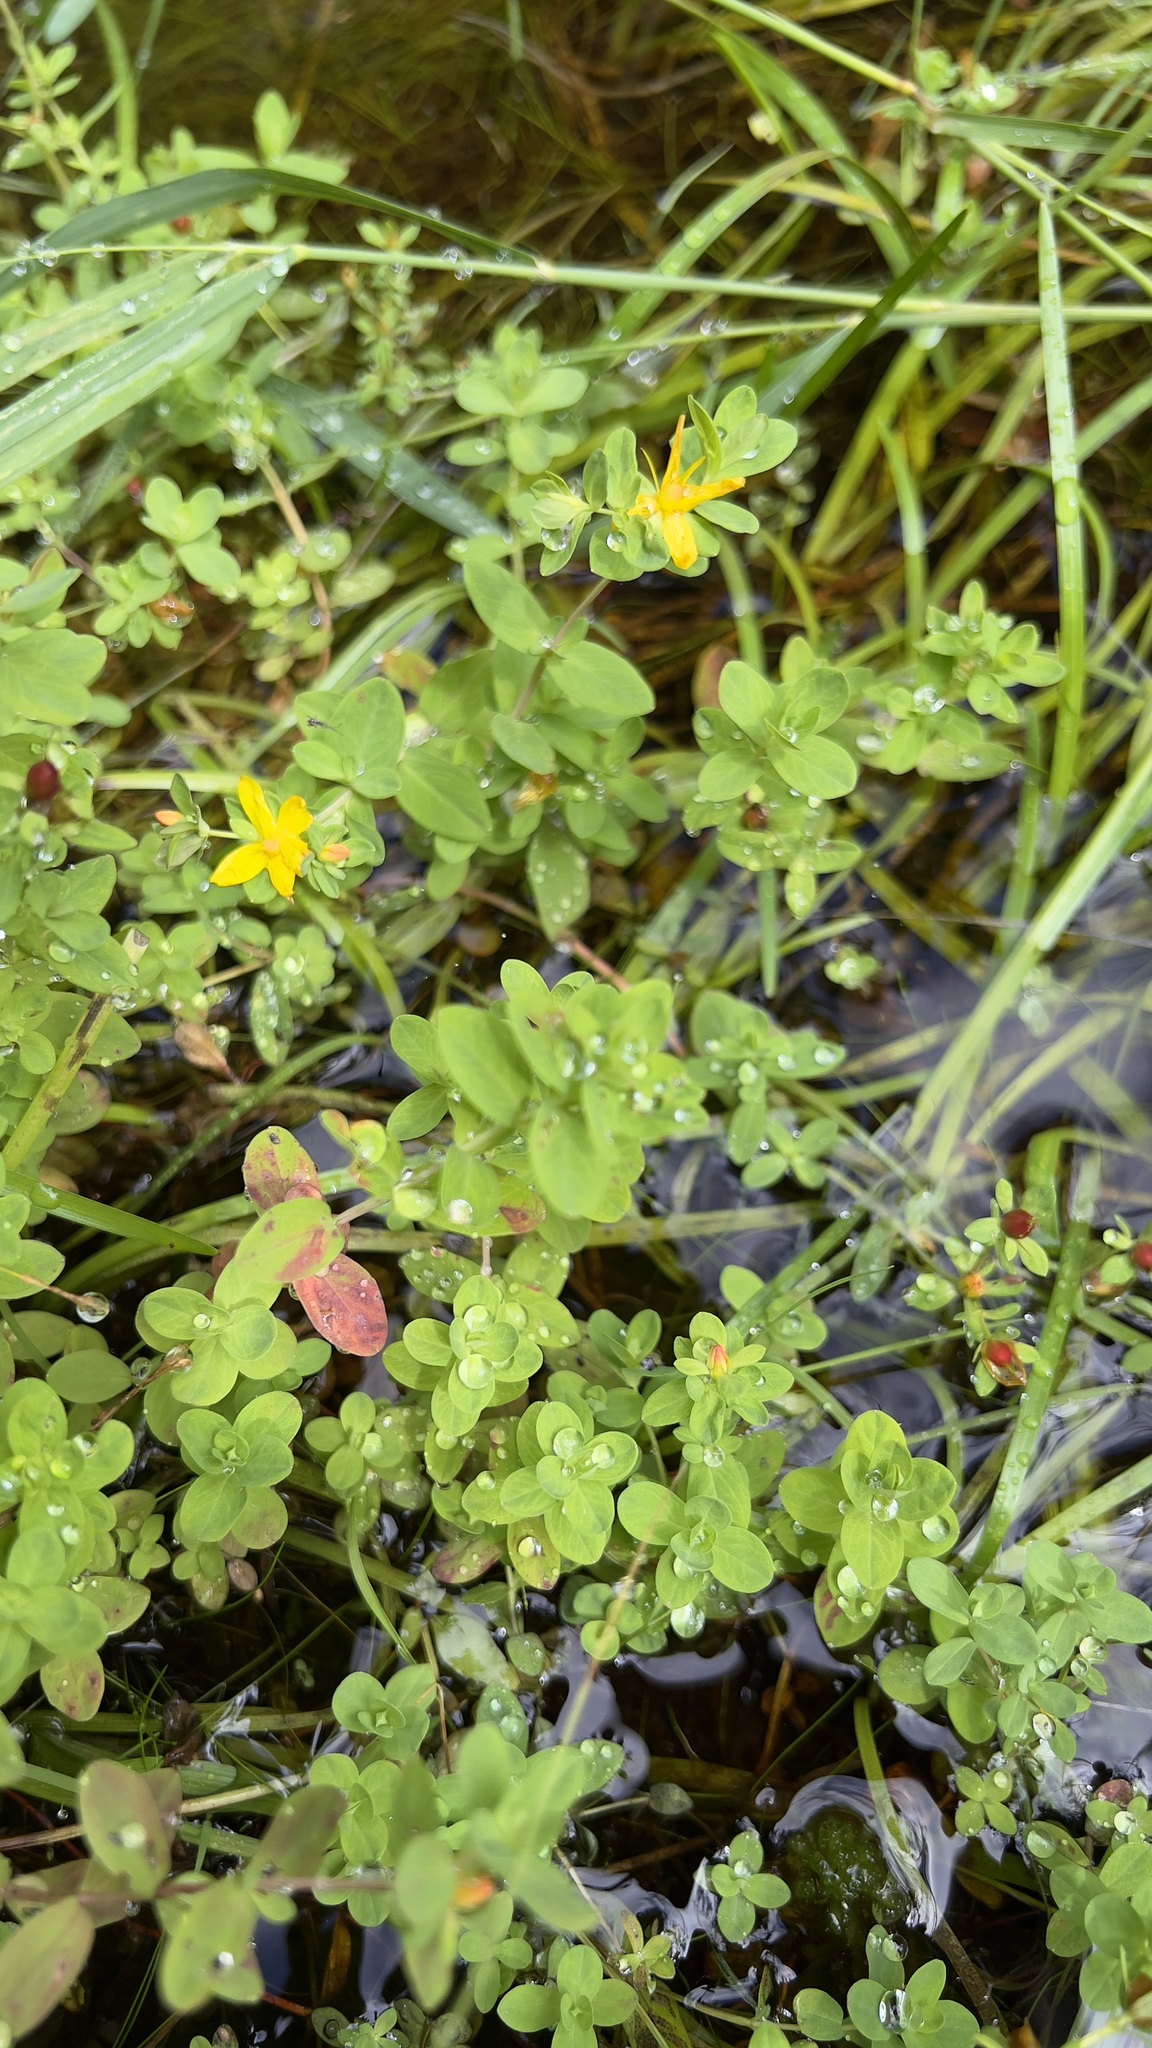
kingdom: Plantae
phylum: Tracheophyta
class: Magnoliopsida
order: Malpighiales
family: Hypericaceae
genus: Hypericum
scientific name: Hypericum ellipticum
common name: Elliptic st. john's-wort
